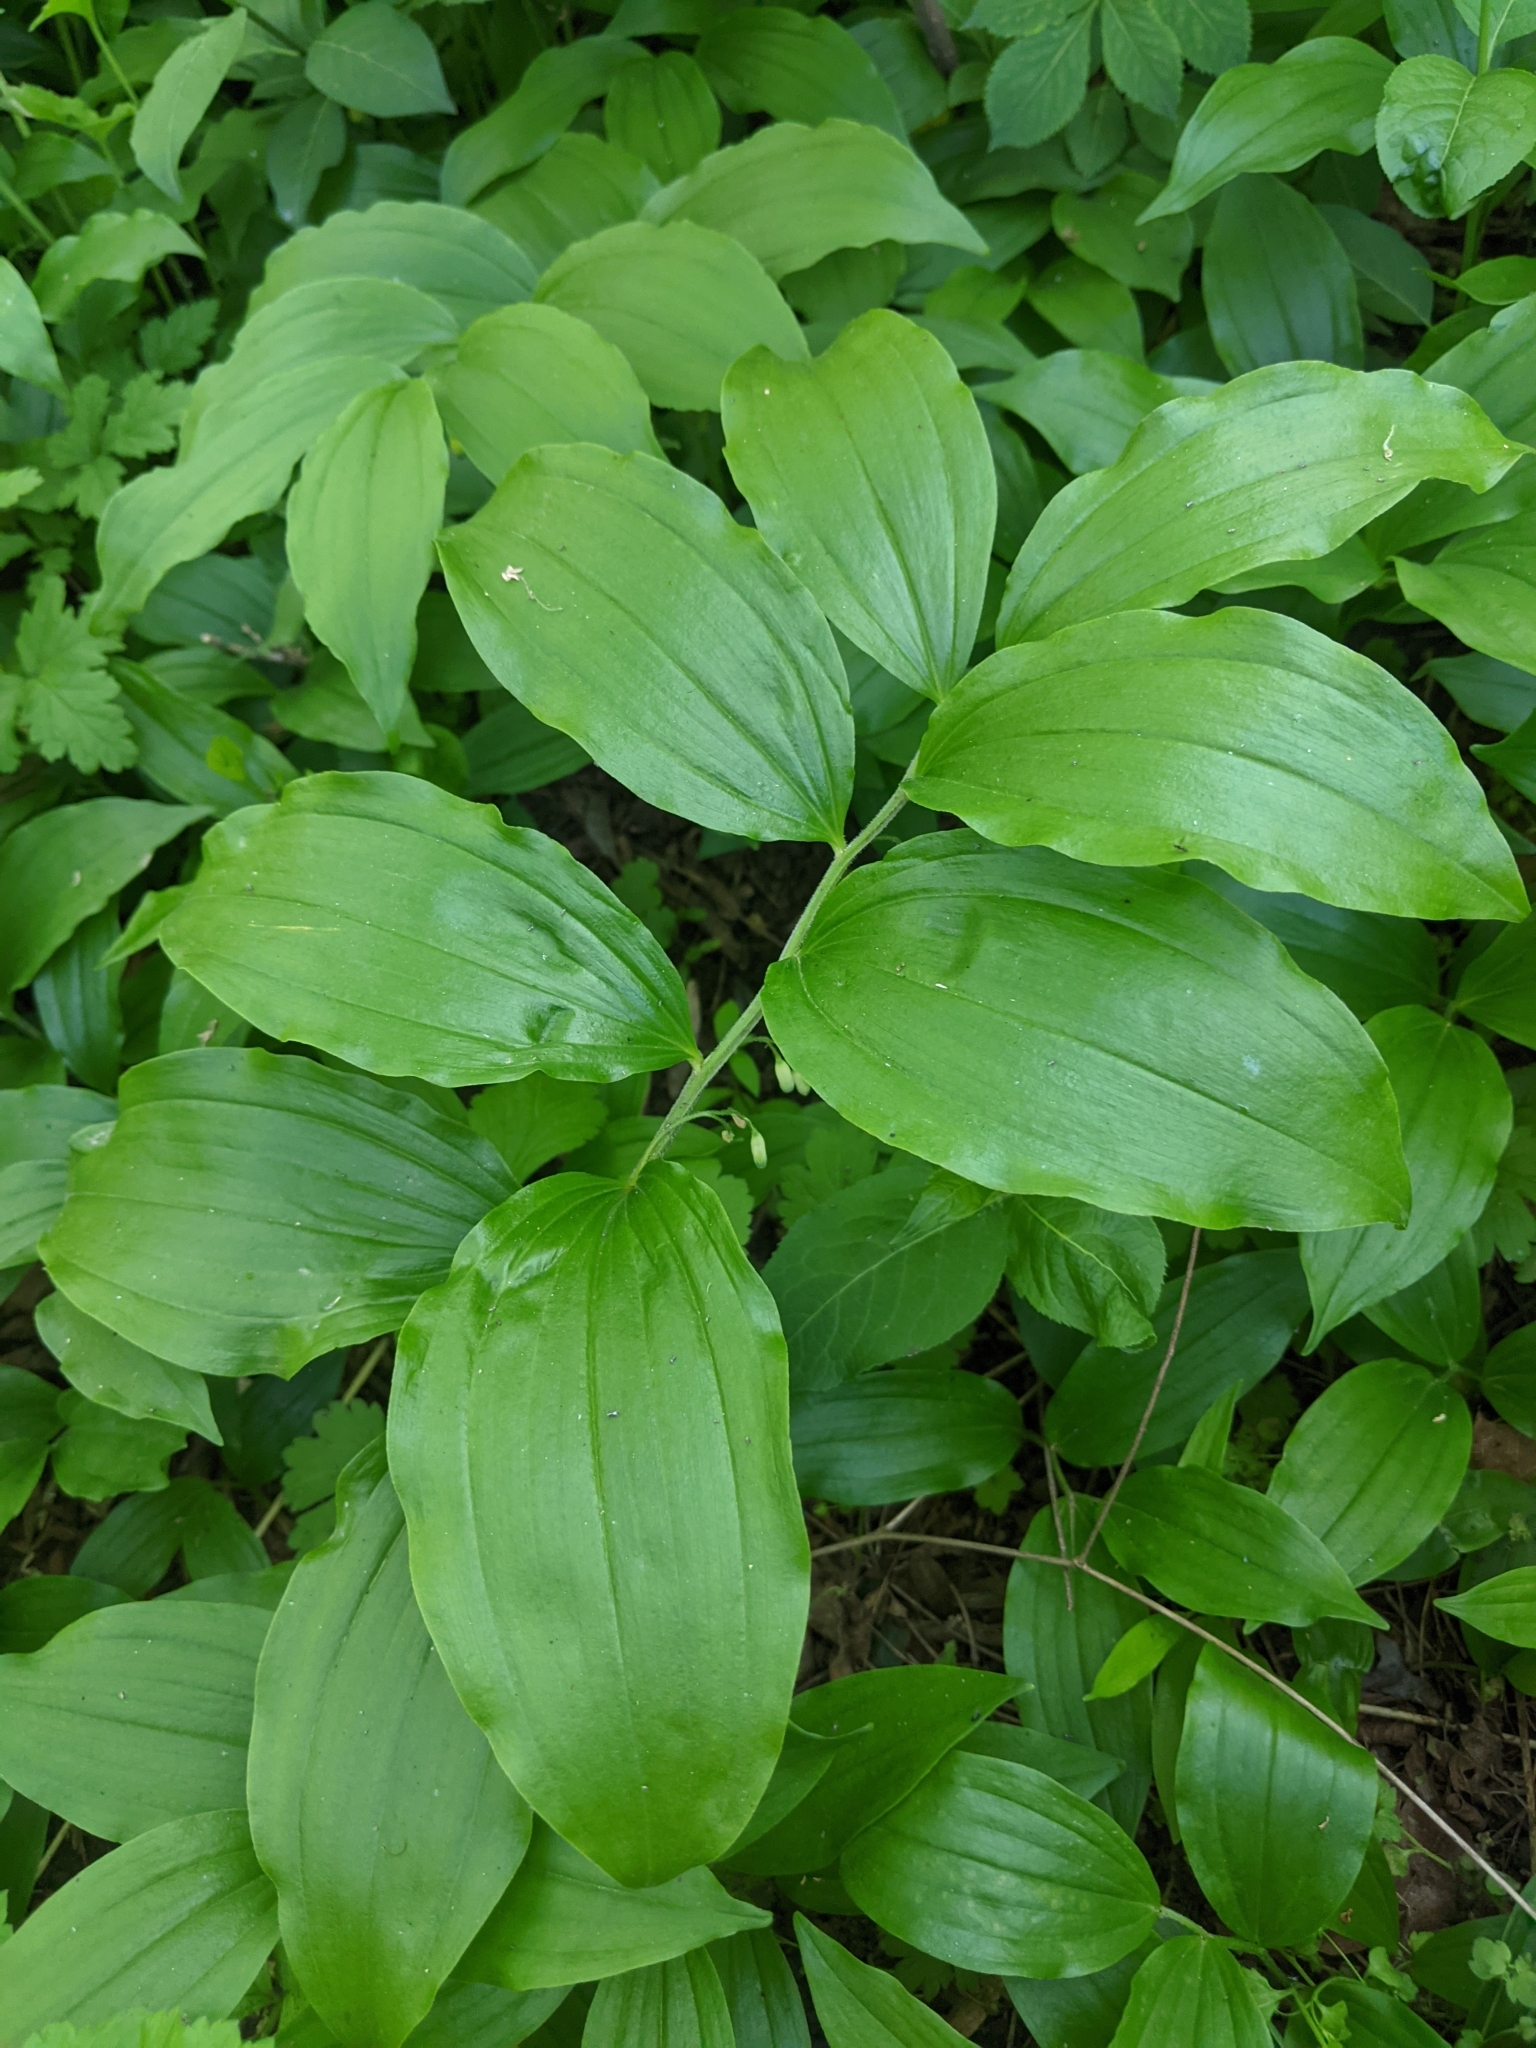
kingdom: Plantae
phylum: Tracheophyta
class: Liliopsida
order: Asparagales
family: Asparagaceae
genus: Polygonatum
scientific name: Polygonatum latifolium
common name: Broadleaf solomon's seal
